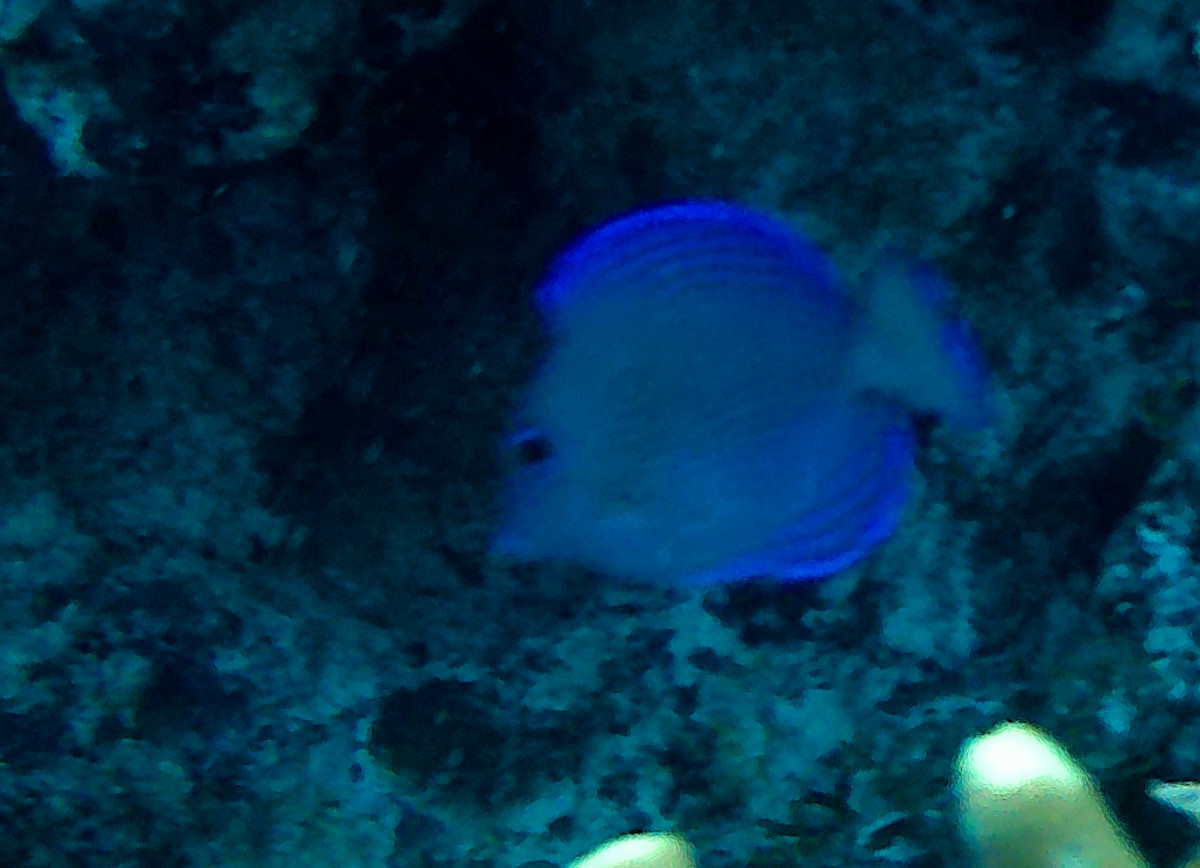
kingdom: Animalia
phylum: Chordata
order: Perciformes
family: Acanthuridae
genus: Acanthurus
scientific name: Acanthurus coeruleus
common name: Blue tang
